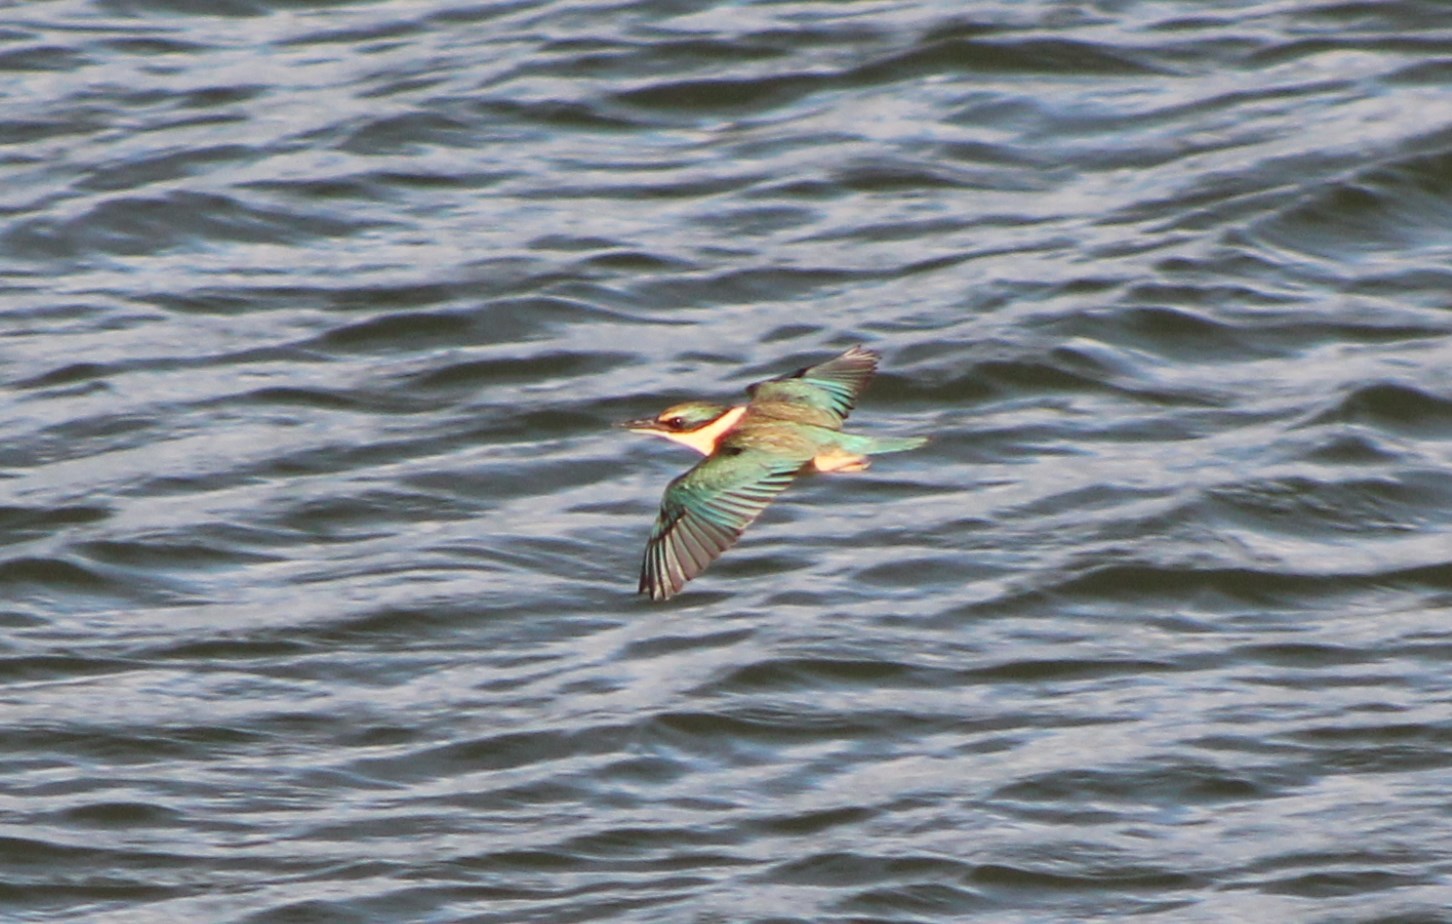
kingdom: Animalia
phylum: Chordata
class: Aves
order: Coraciiformes
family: Alcedinidae
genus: Todiramphus
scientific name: Todiramphus sanctus
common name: Sacred kingfisher
